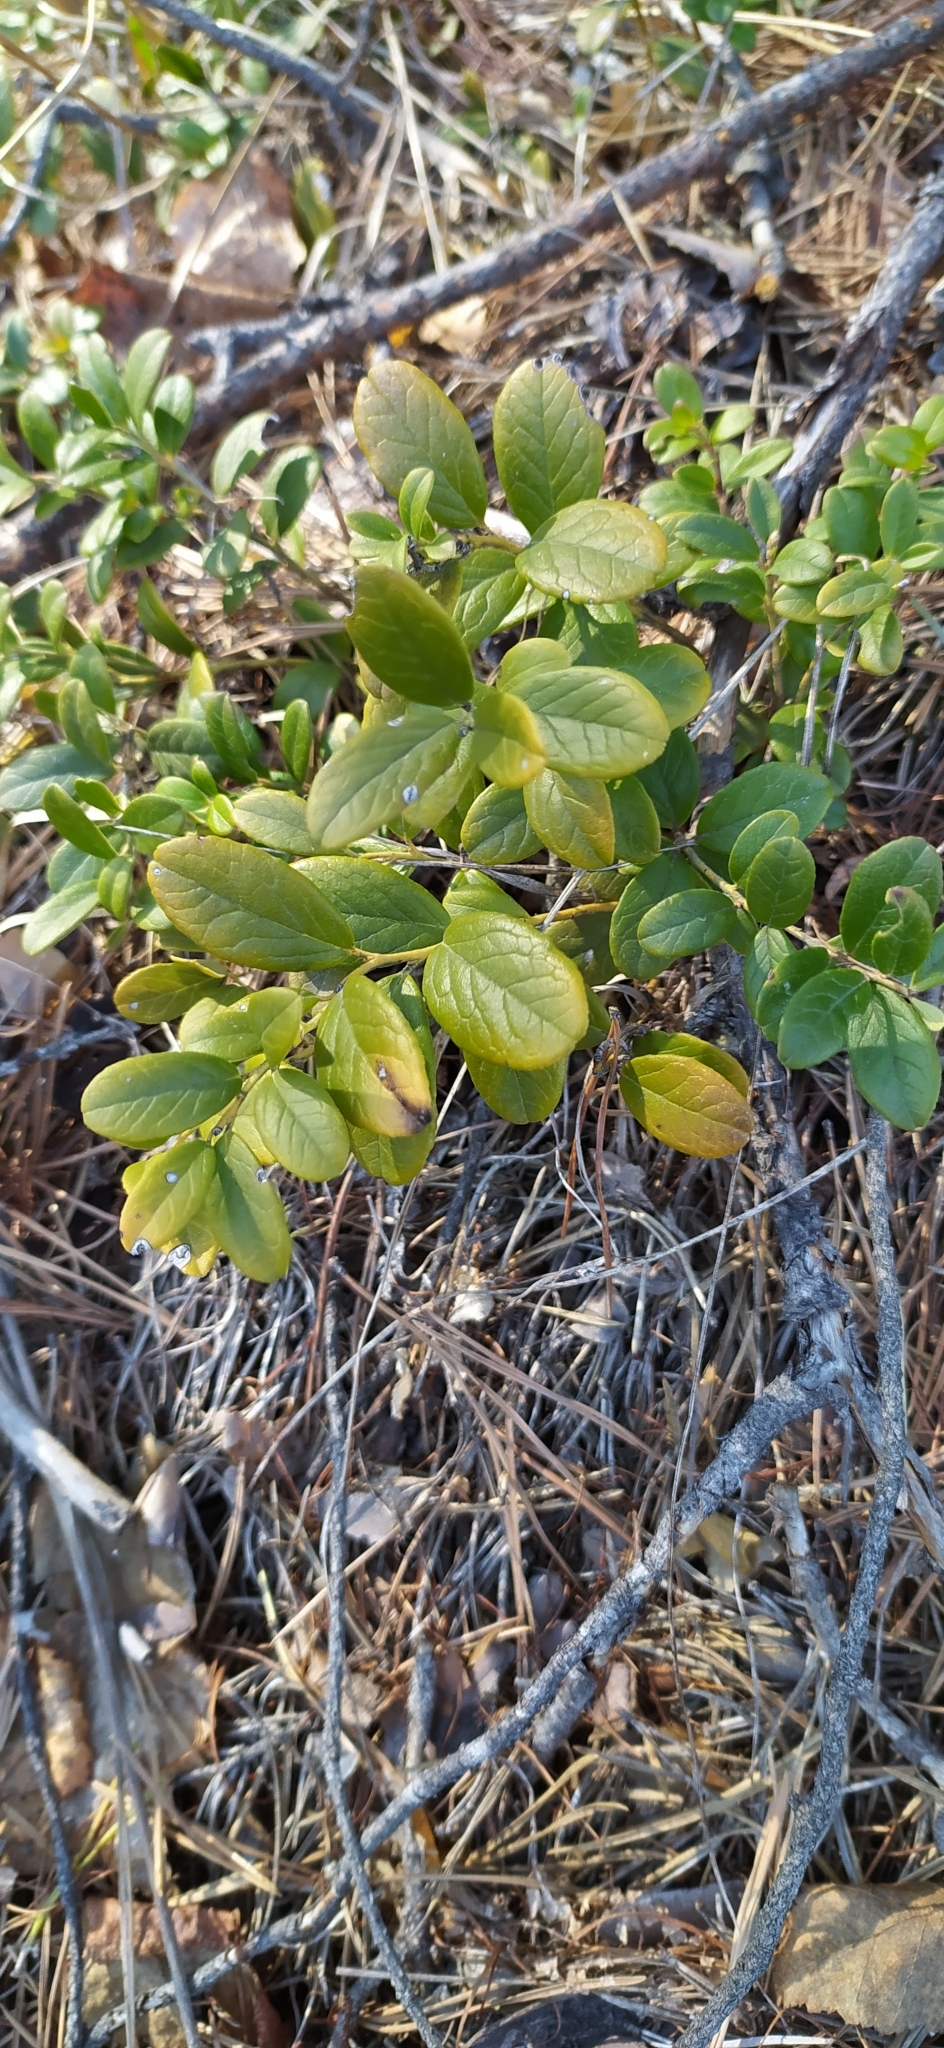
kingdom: Plantae
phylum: Tracheophyta
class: Magnoliopsida
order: Ericales
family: Ericaceae
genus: Vaccinium
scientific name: Vaccinium vitis-idaea
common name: Cowberry
